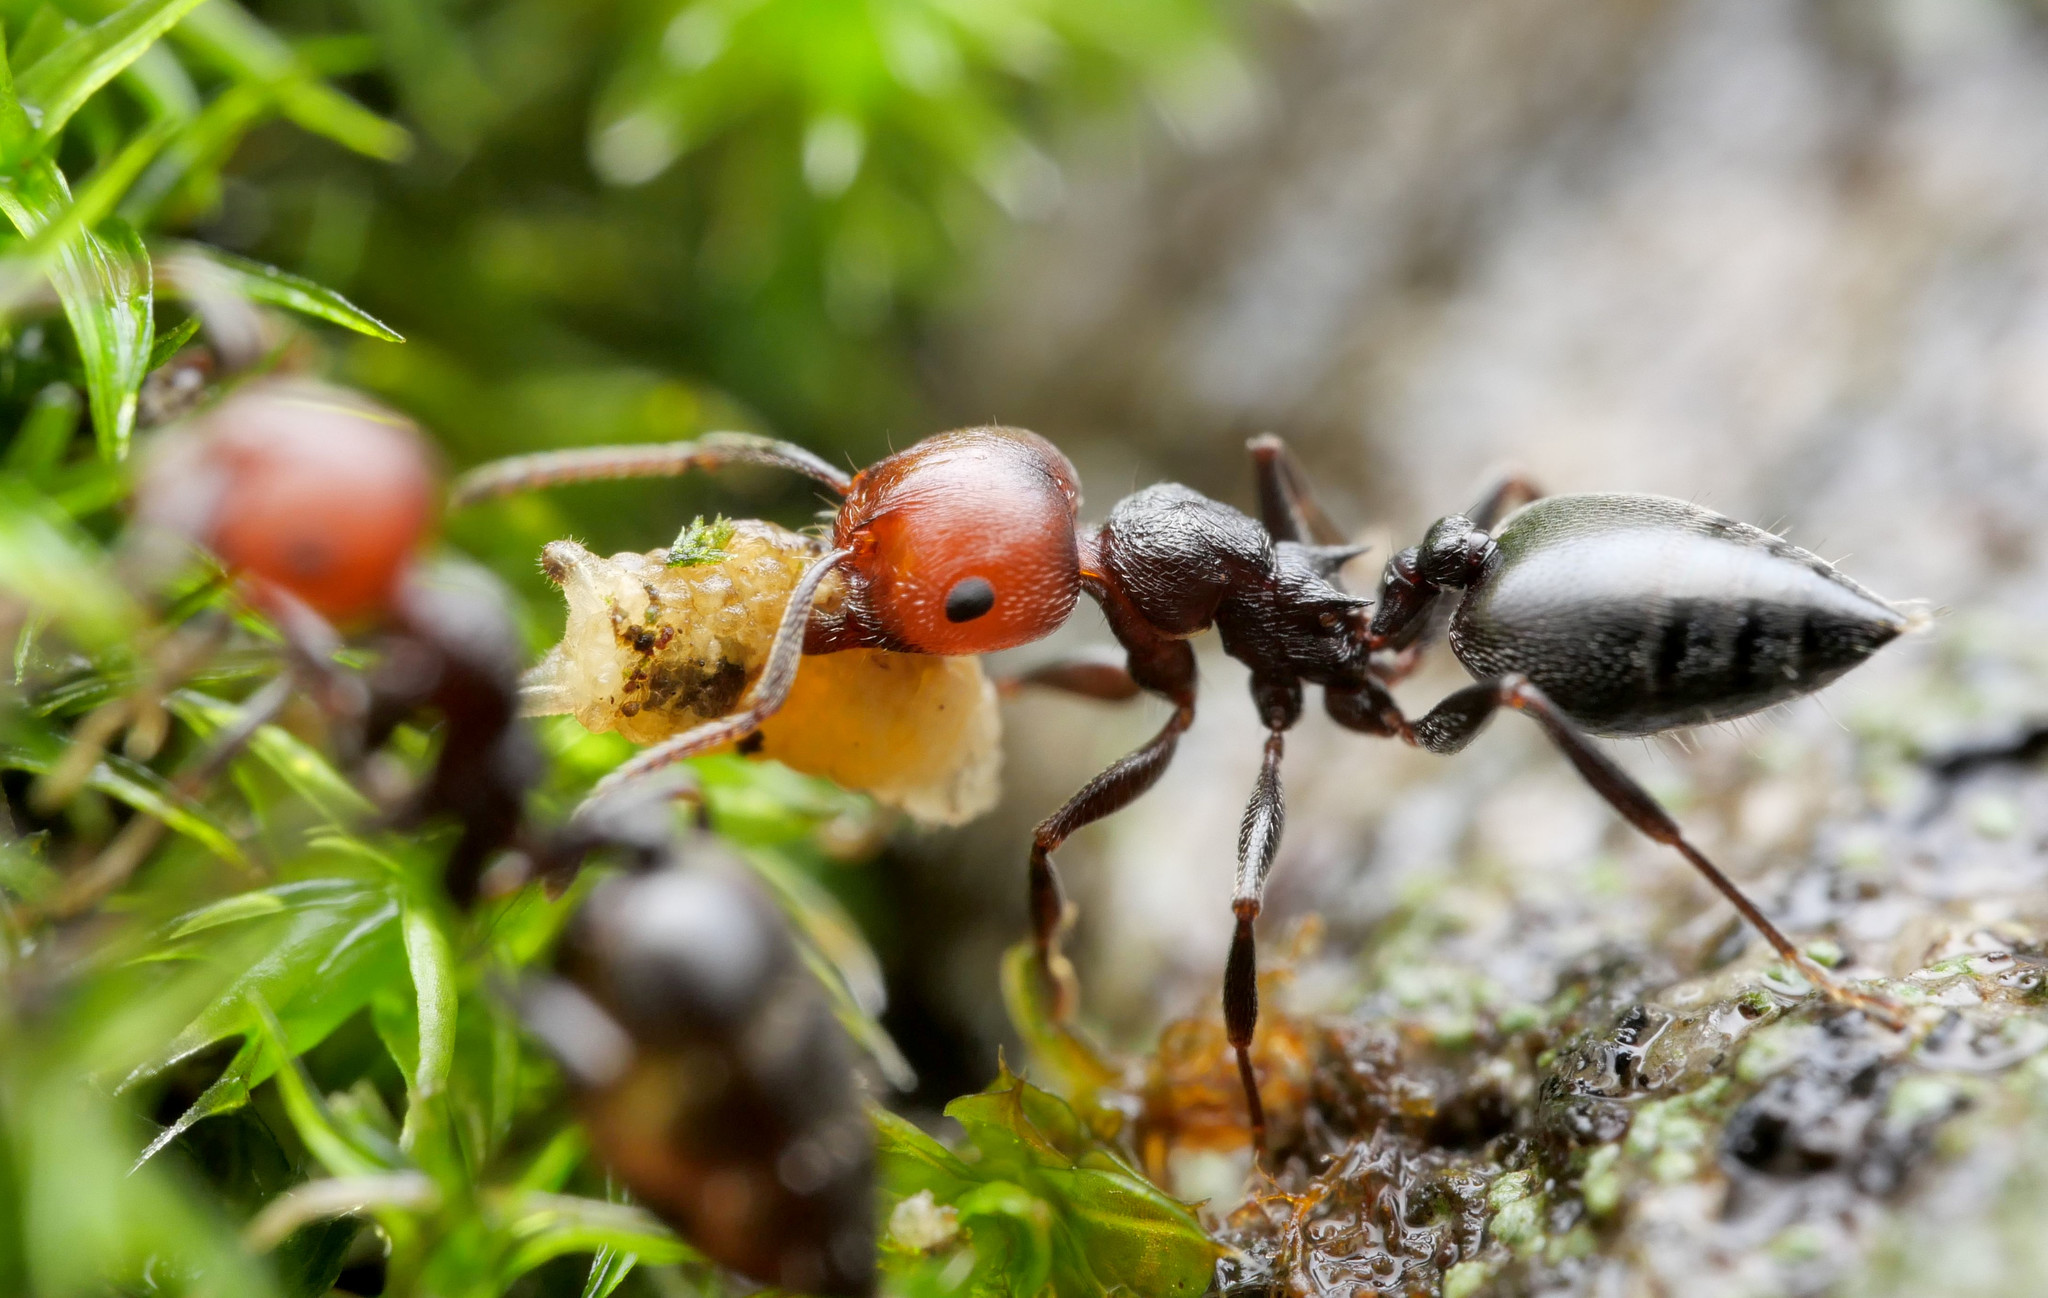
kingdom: Animalia
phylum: Arthropoda
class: Insecta
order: Hymenoptera
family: Formicidae
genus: Crematogaster
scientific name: Crematogaster scutellaris
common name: Fourmi du liège
